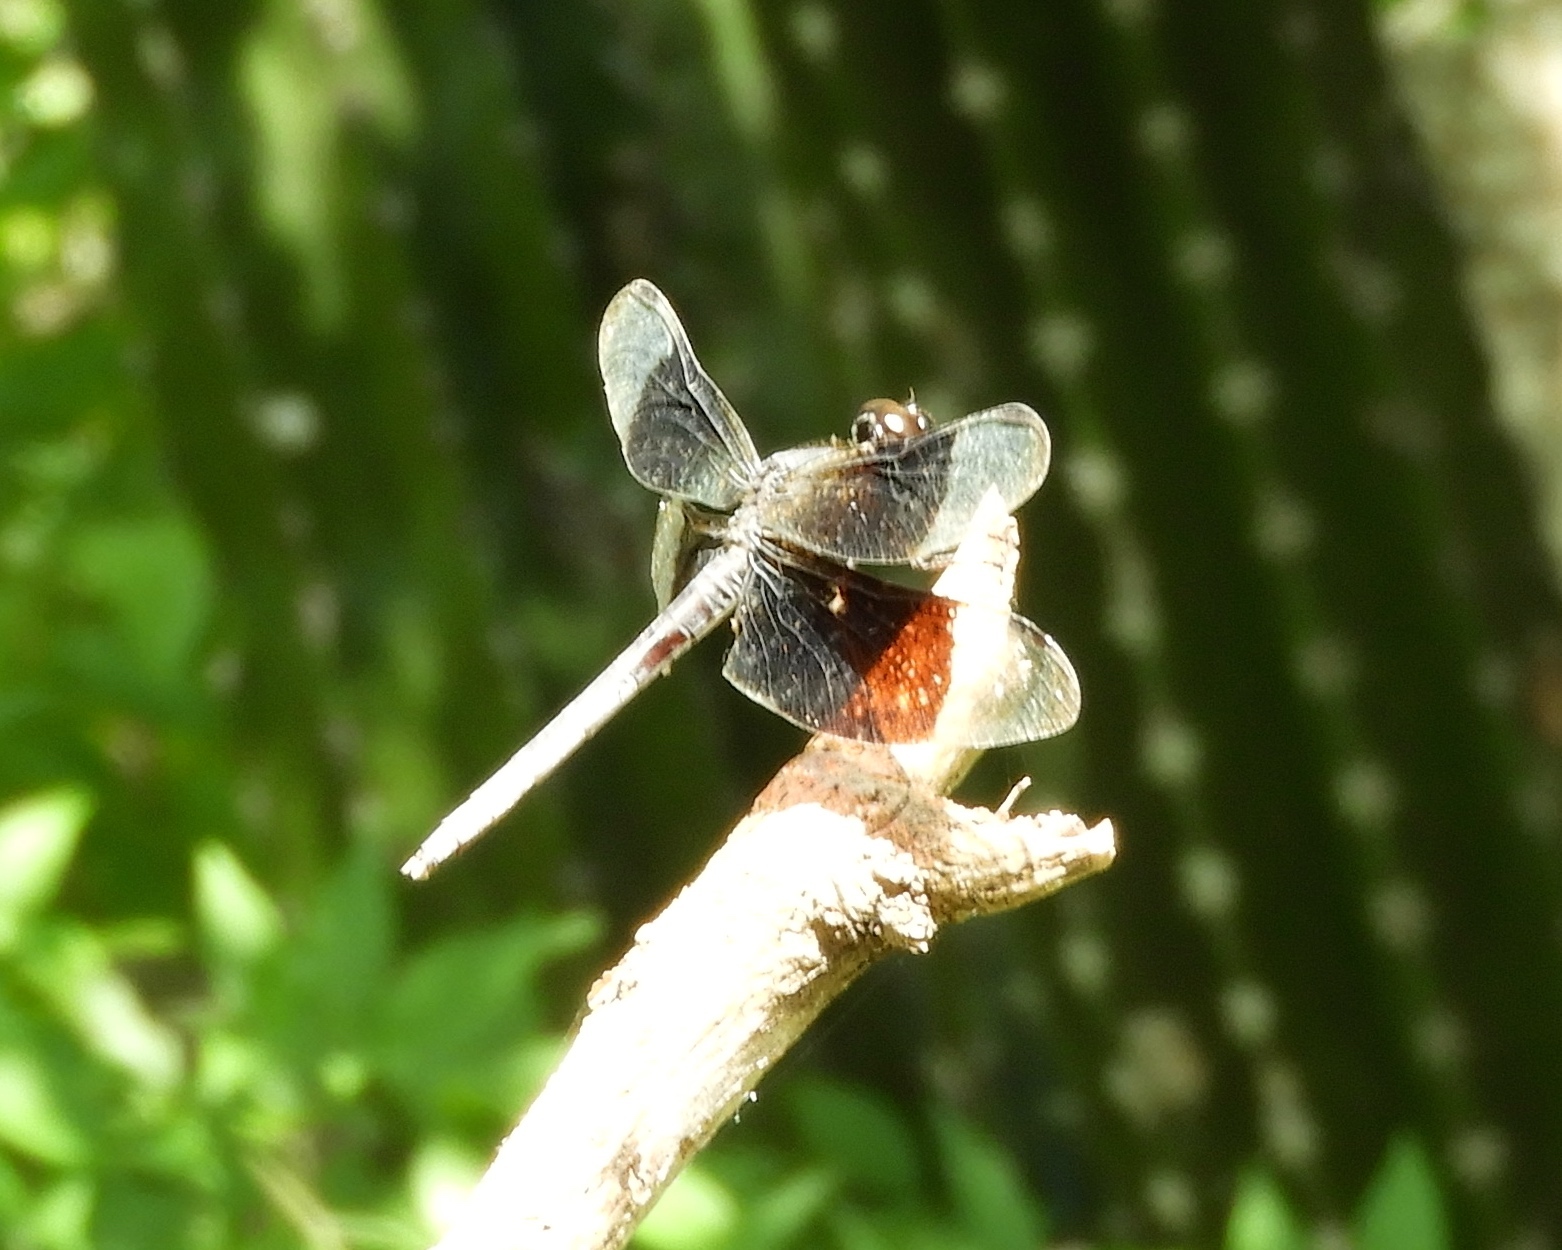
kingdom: Animalia
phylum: Arthropoda
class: Insecta
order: Odonata
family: Libellulidae
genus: Erythrodiplax
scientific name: Erythrodiplax funerea
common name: Black-winged dragonlet
